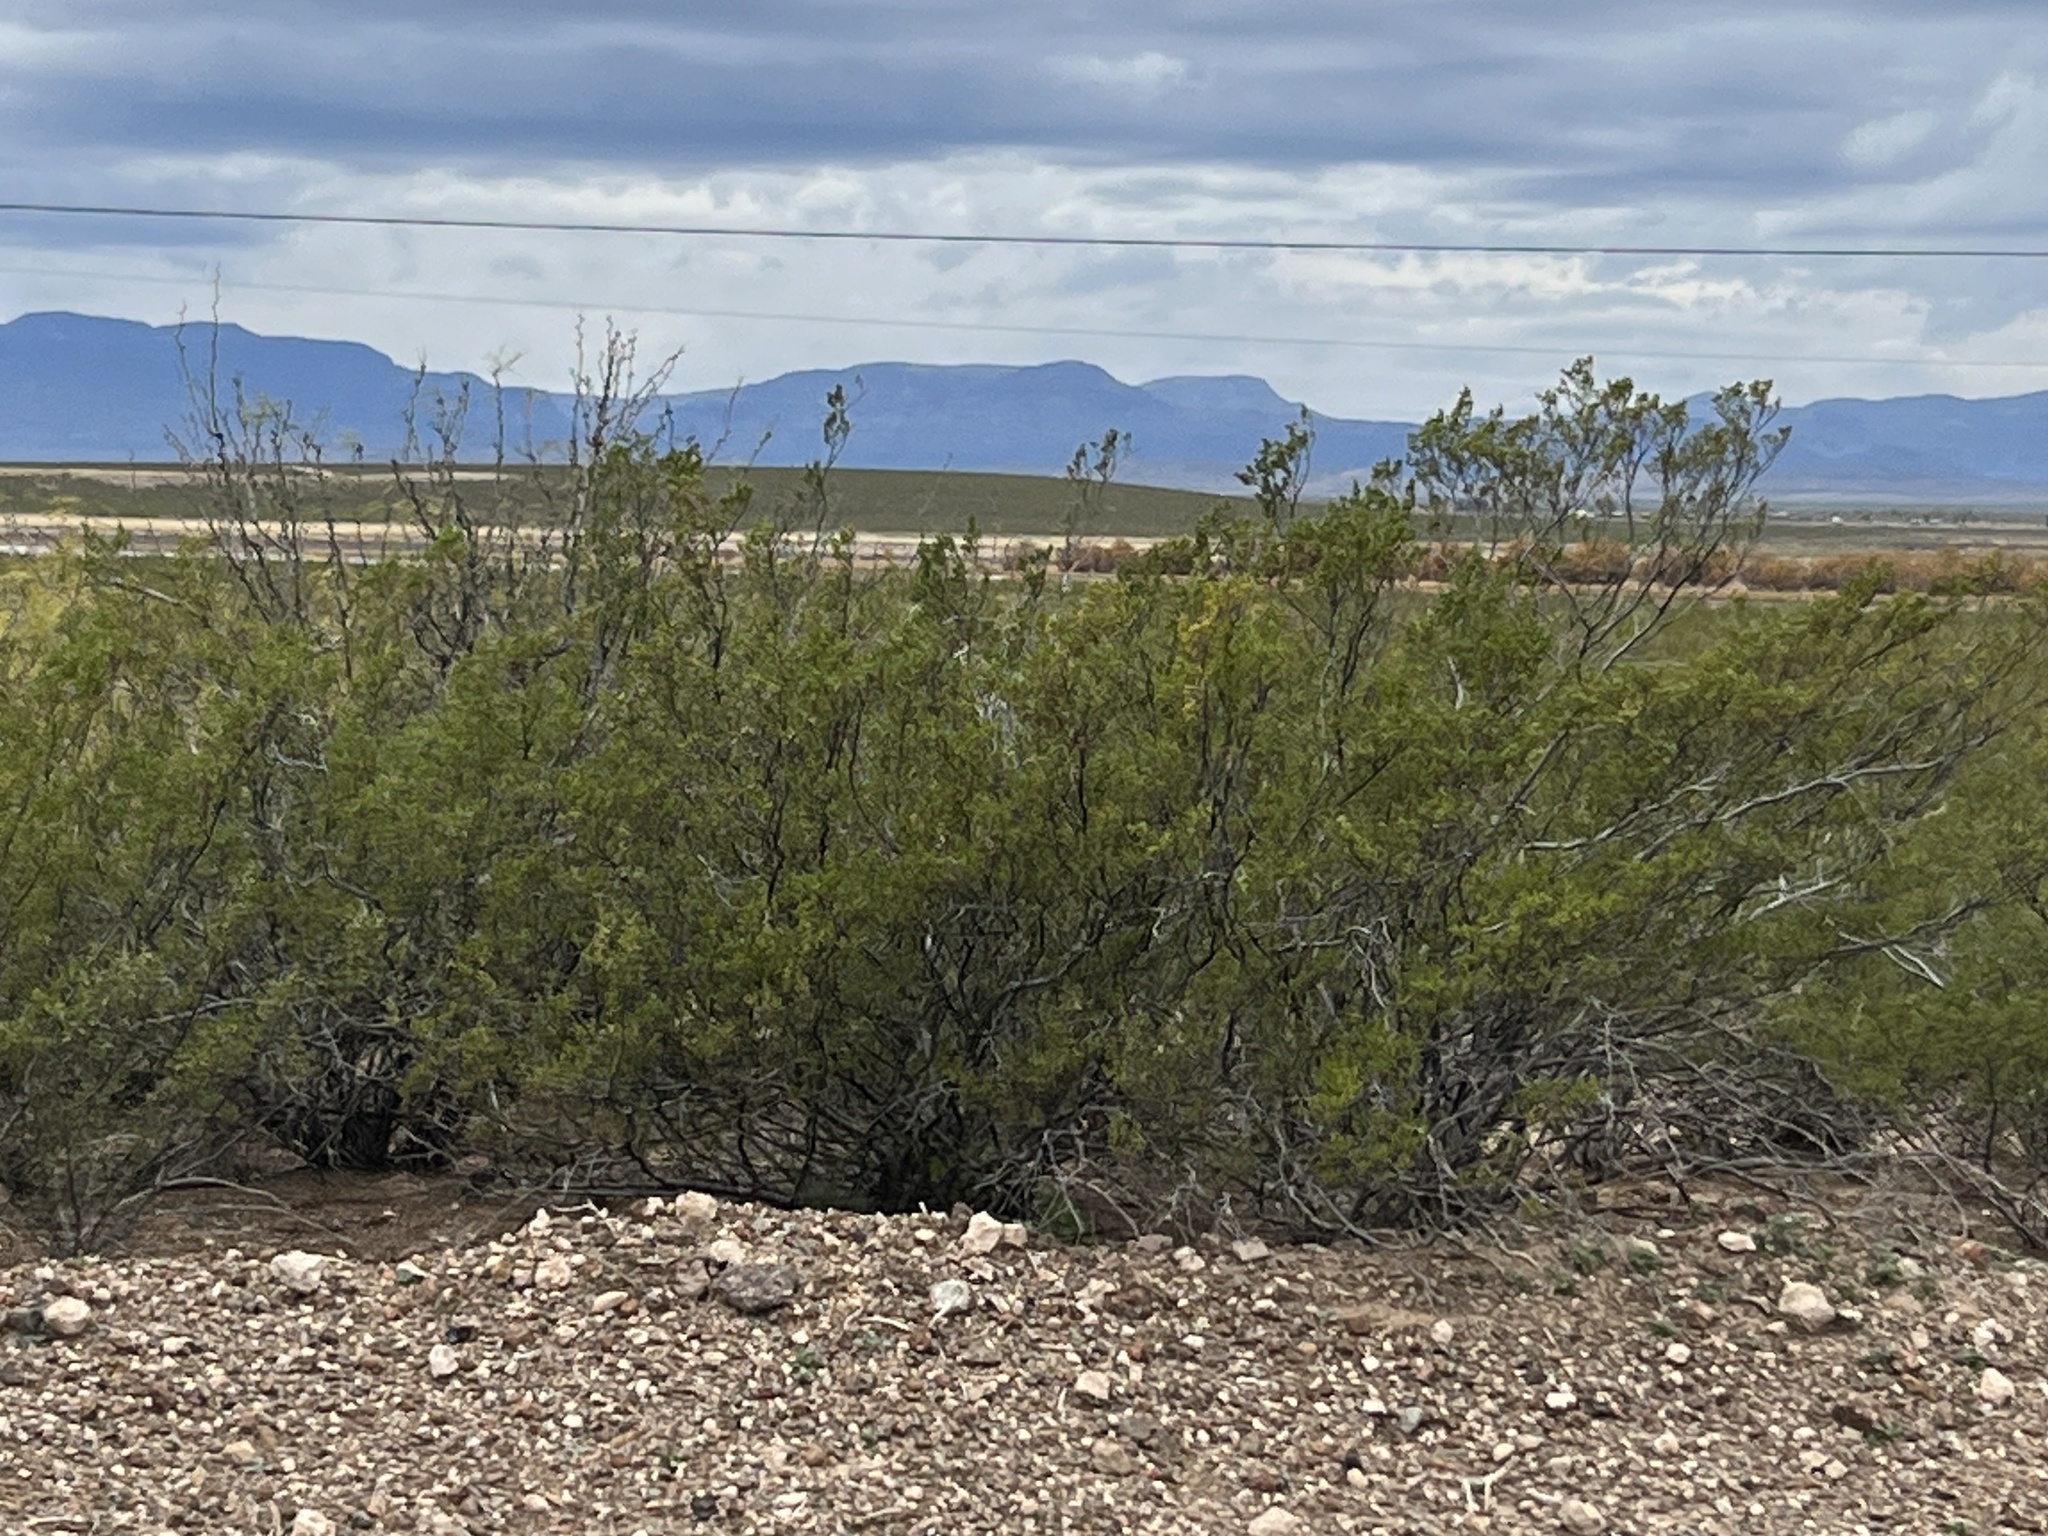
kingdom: Plantae
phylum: Tracheophyta
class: Magnoliopsida
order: Zygophyllales
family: Zygophyllaceae
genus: Larrea
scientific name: Larrea tridentata
